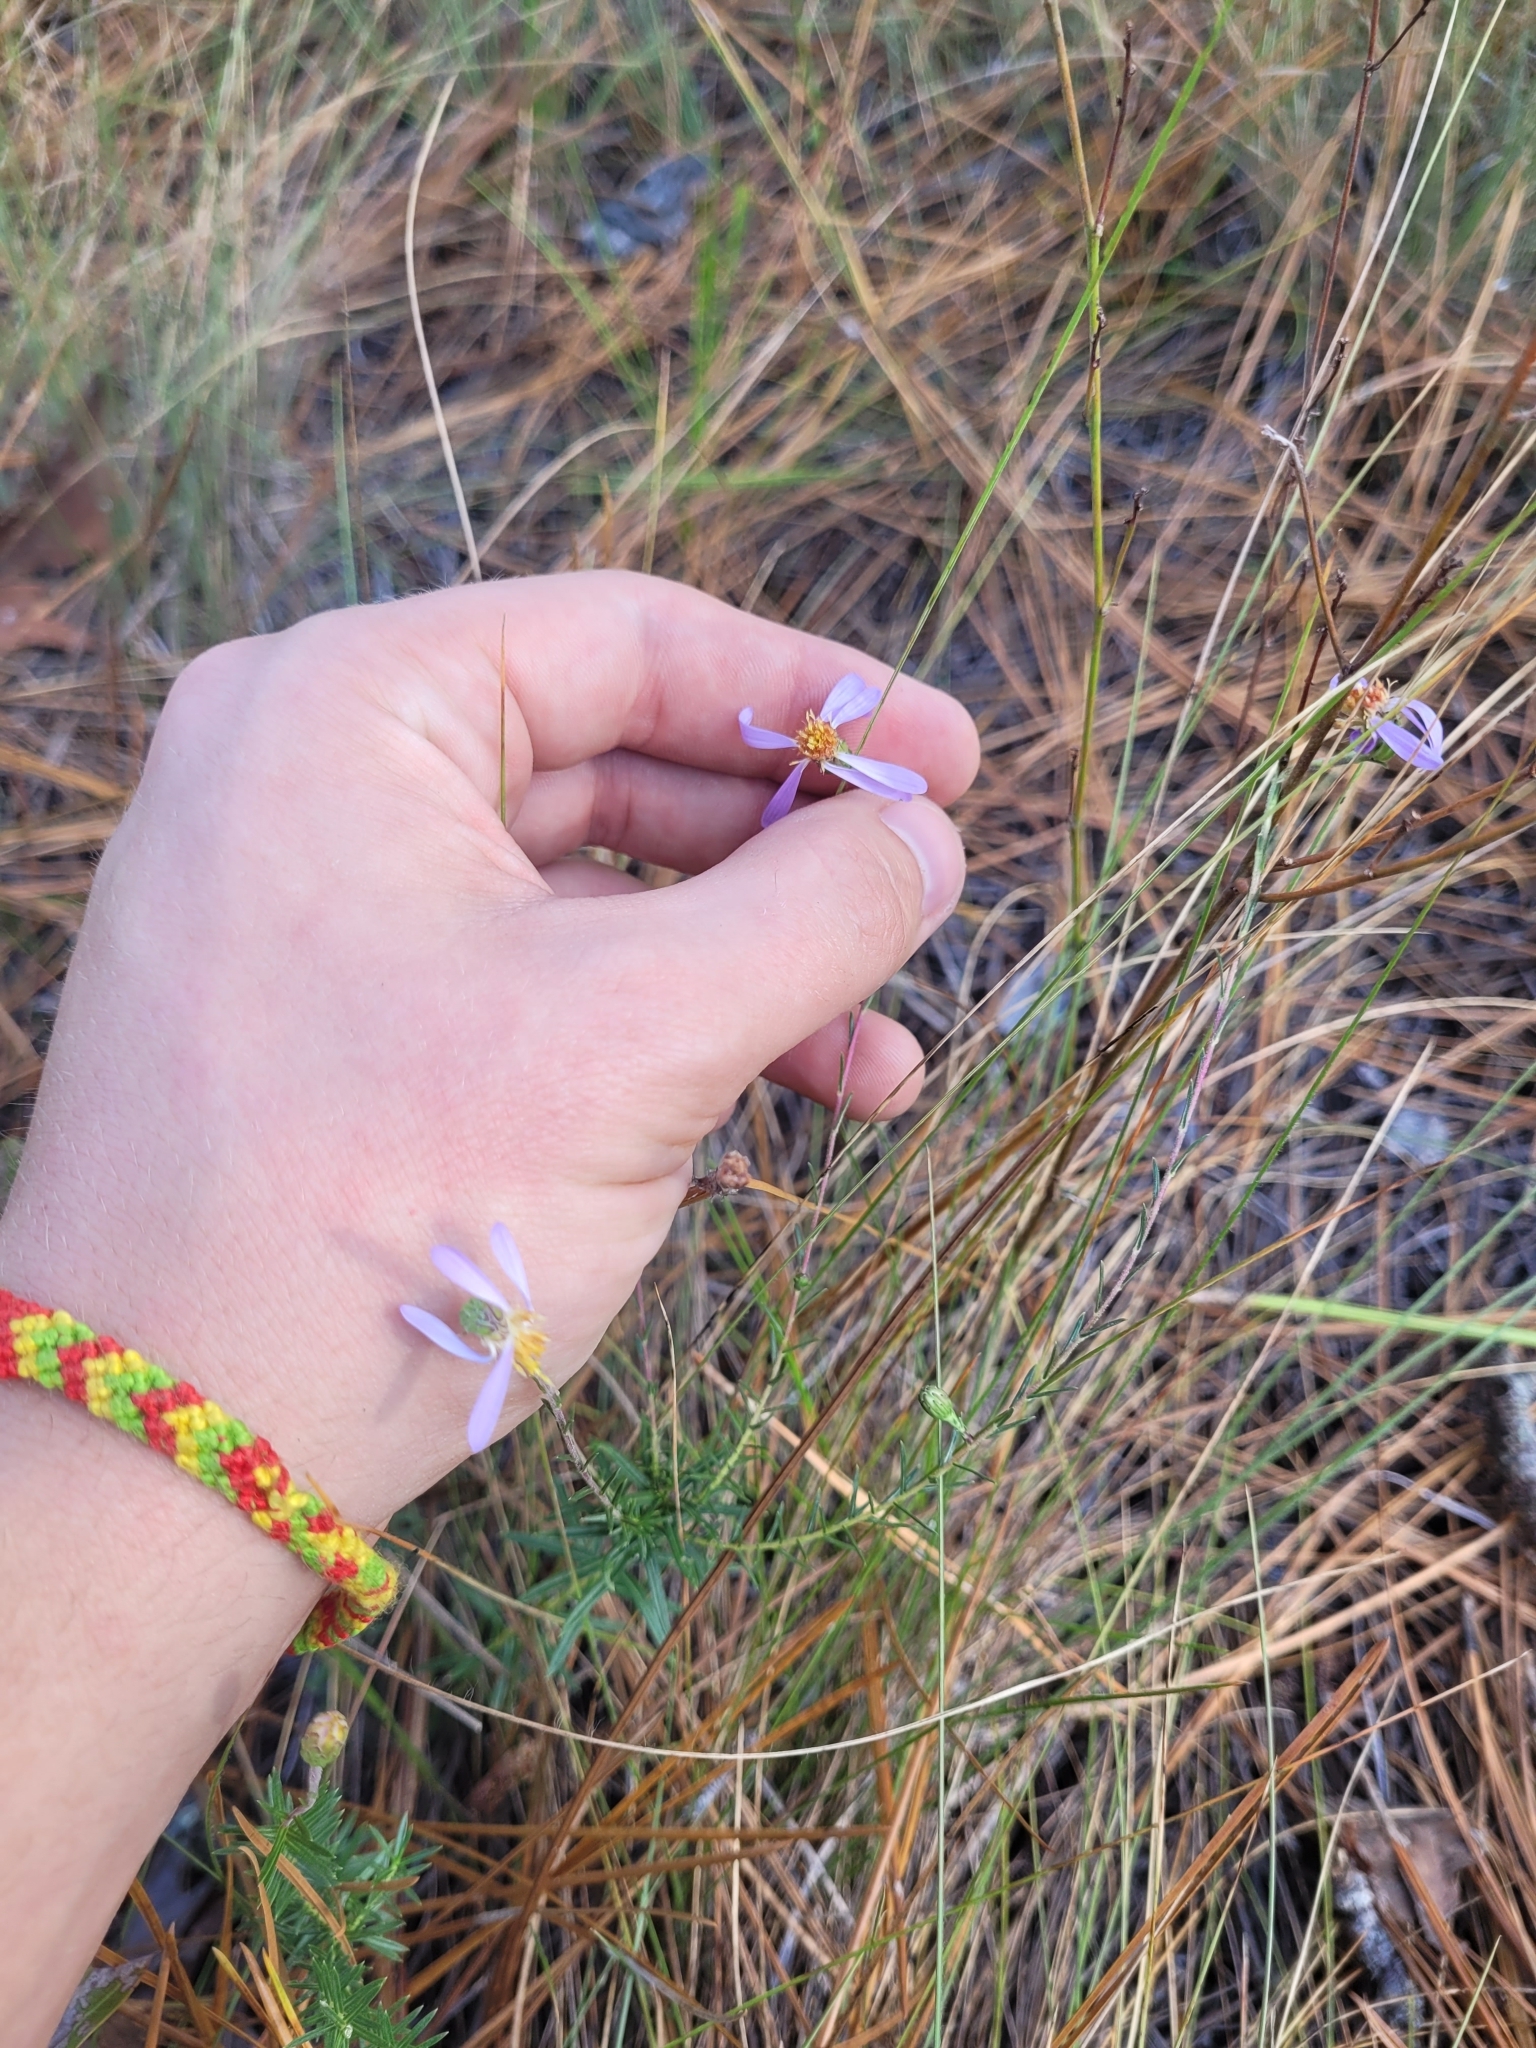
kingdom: Plantae
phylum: Tracheophyta
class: Magnoliopsida
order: Asterales
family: Asteraceae
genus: Ionactis
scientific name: Ionactis linariifolia
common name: Flax-leaf aster
